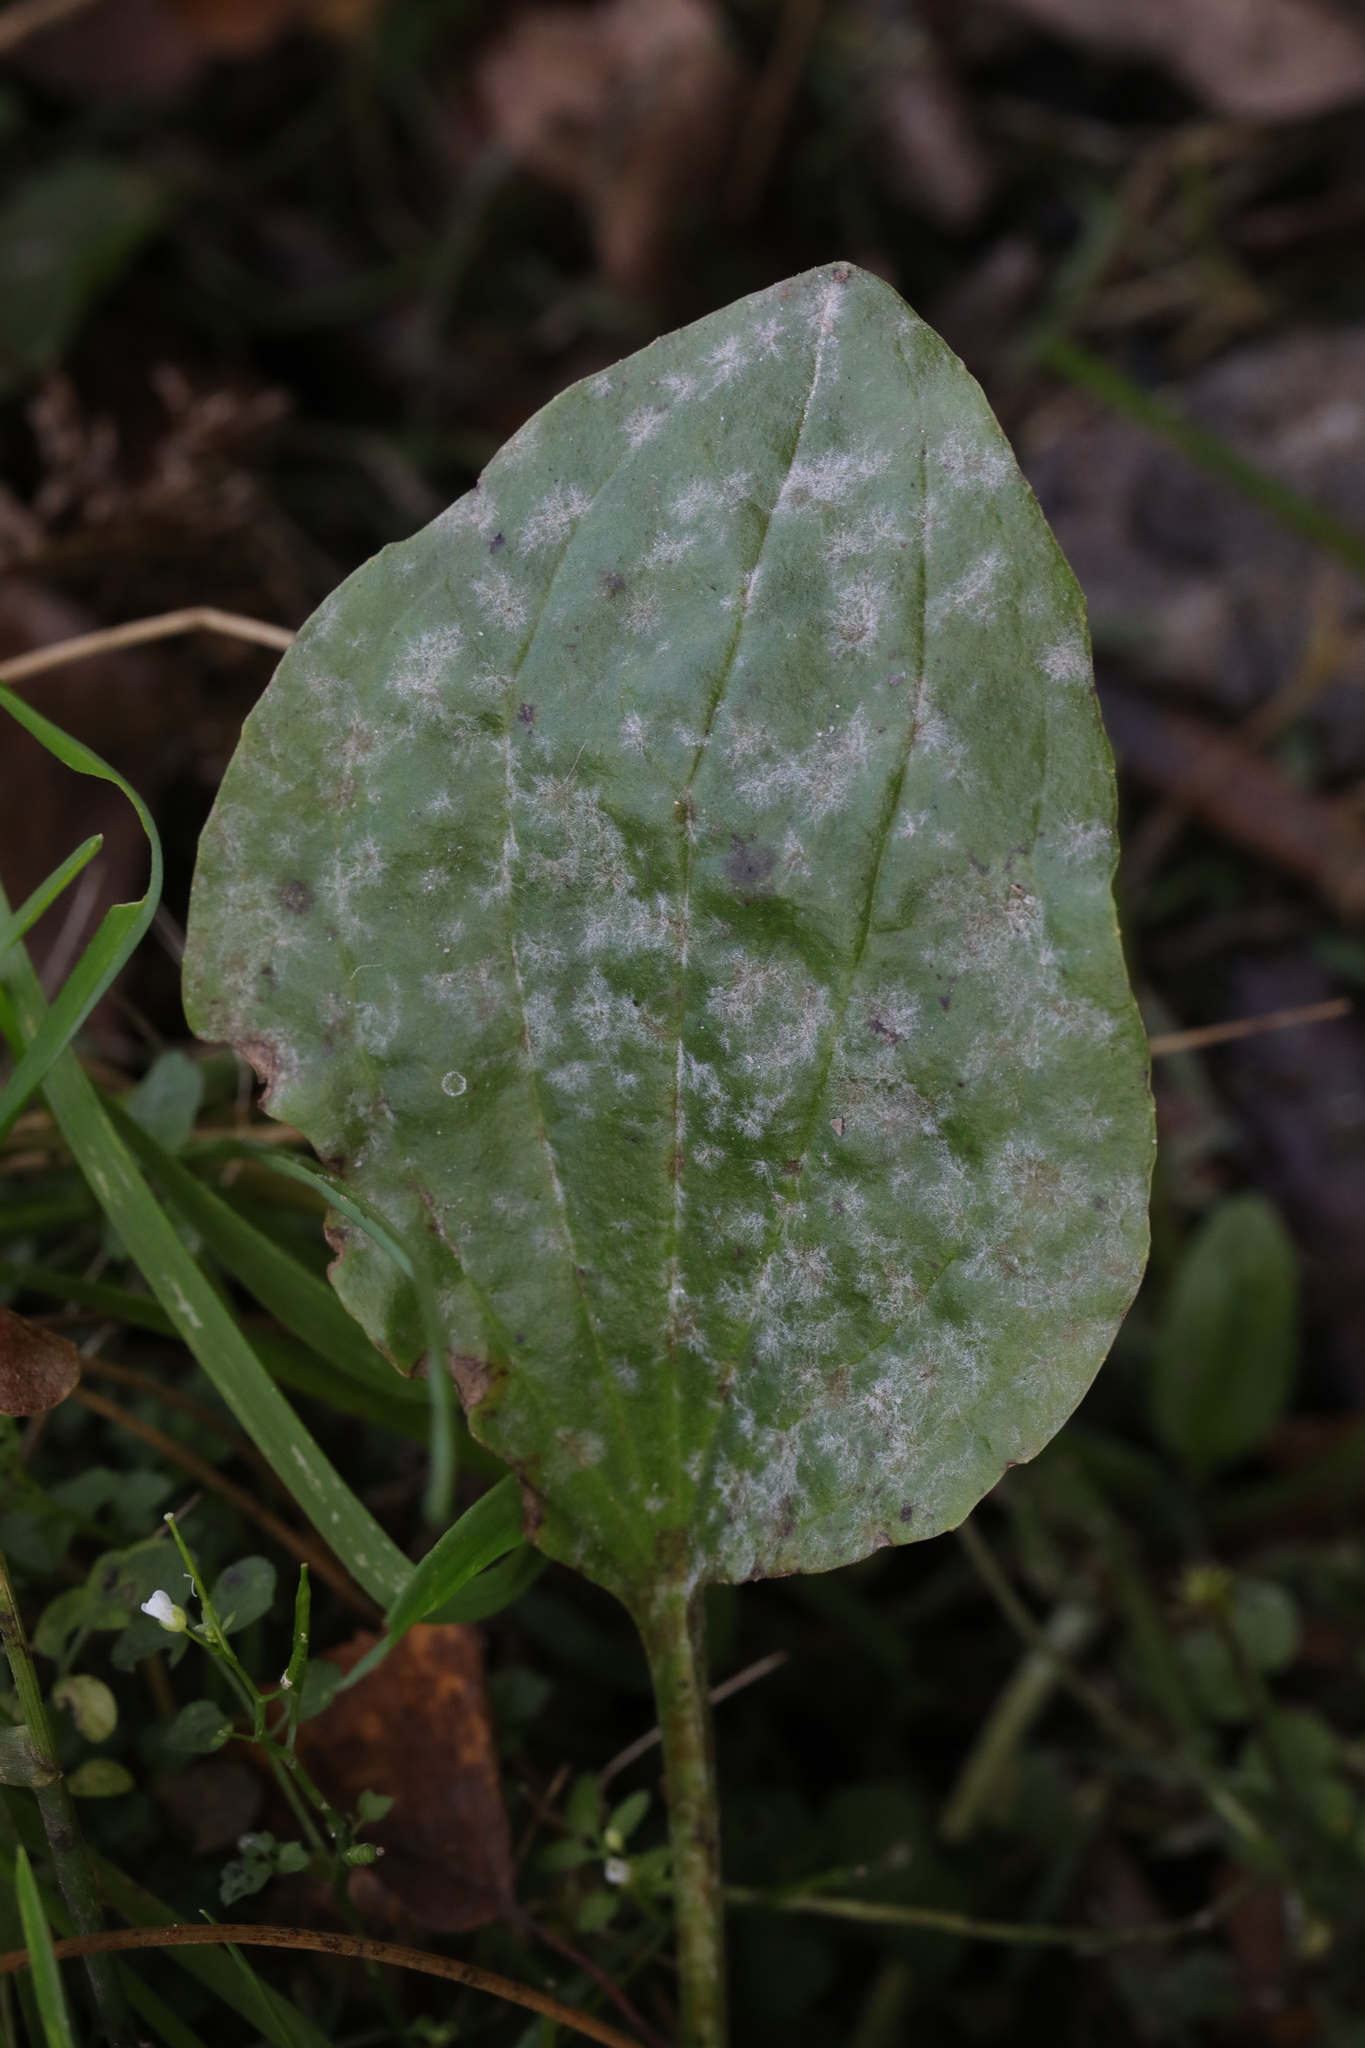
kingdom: Fungi
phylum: Ascomycota
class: Leotiomycetes
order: Helotiales
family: Erysiphaceae
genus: Golovinomyces
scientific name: Golovinomyces sordidus
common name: Plantain mildew
